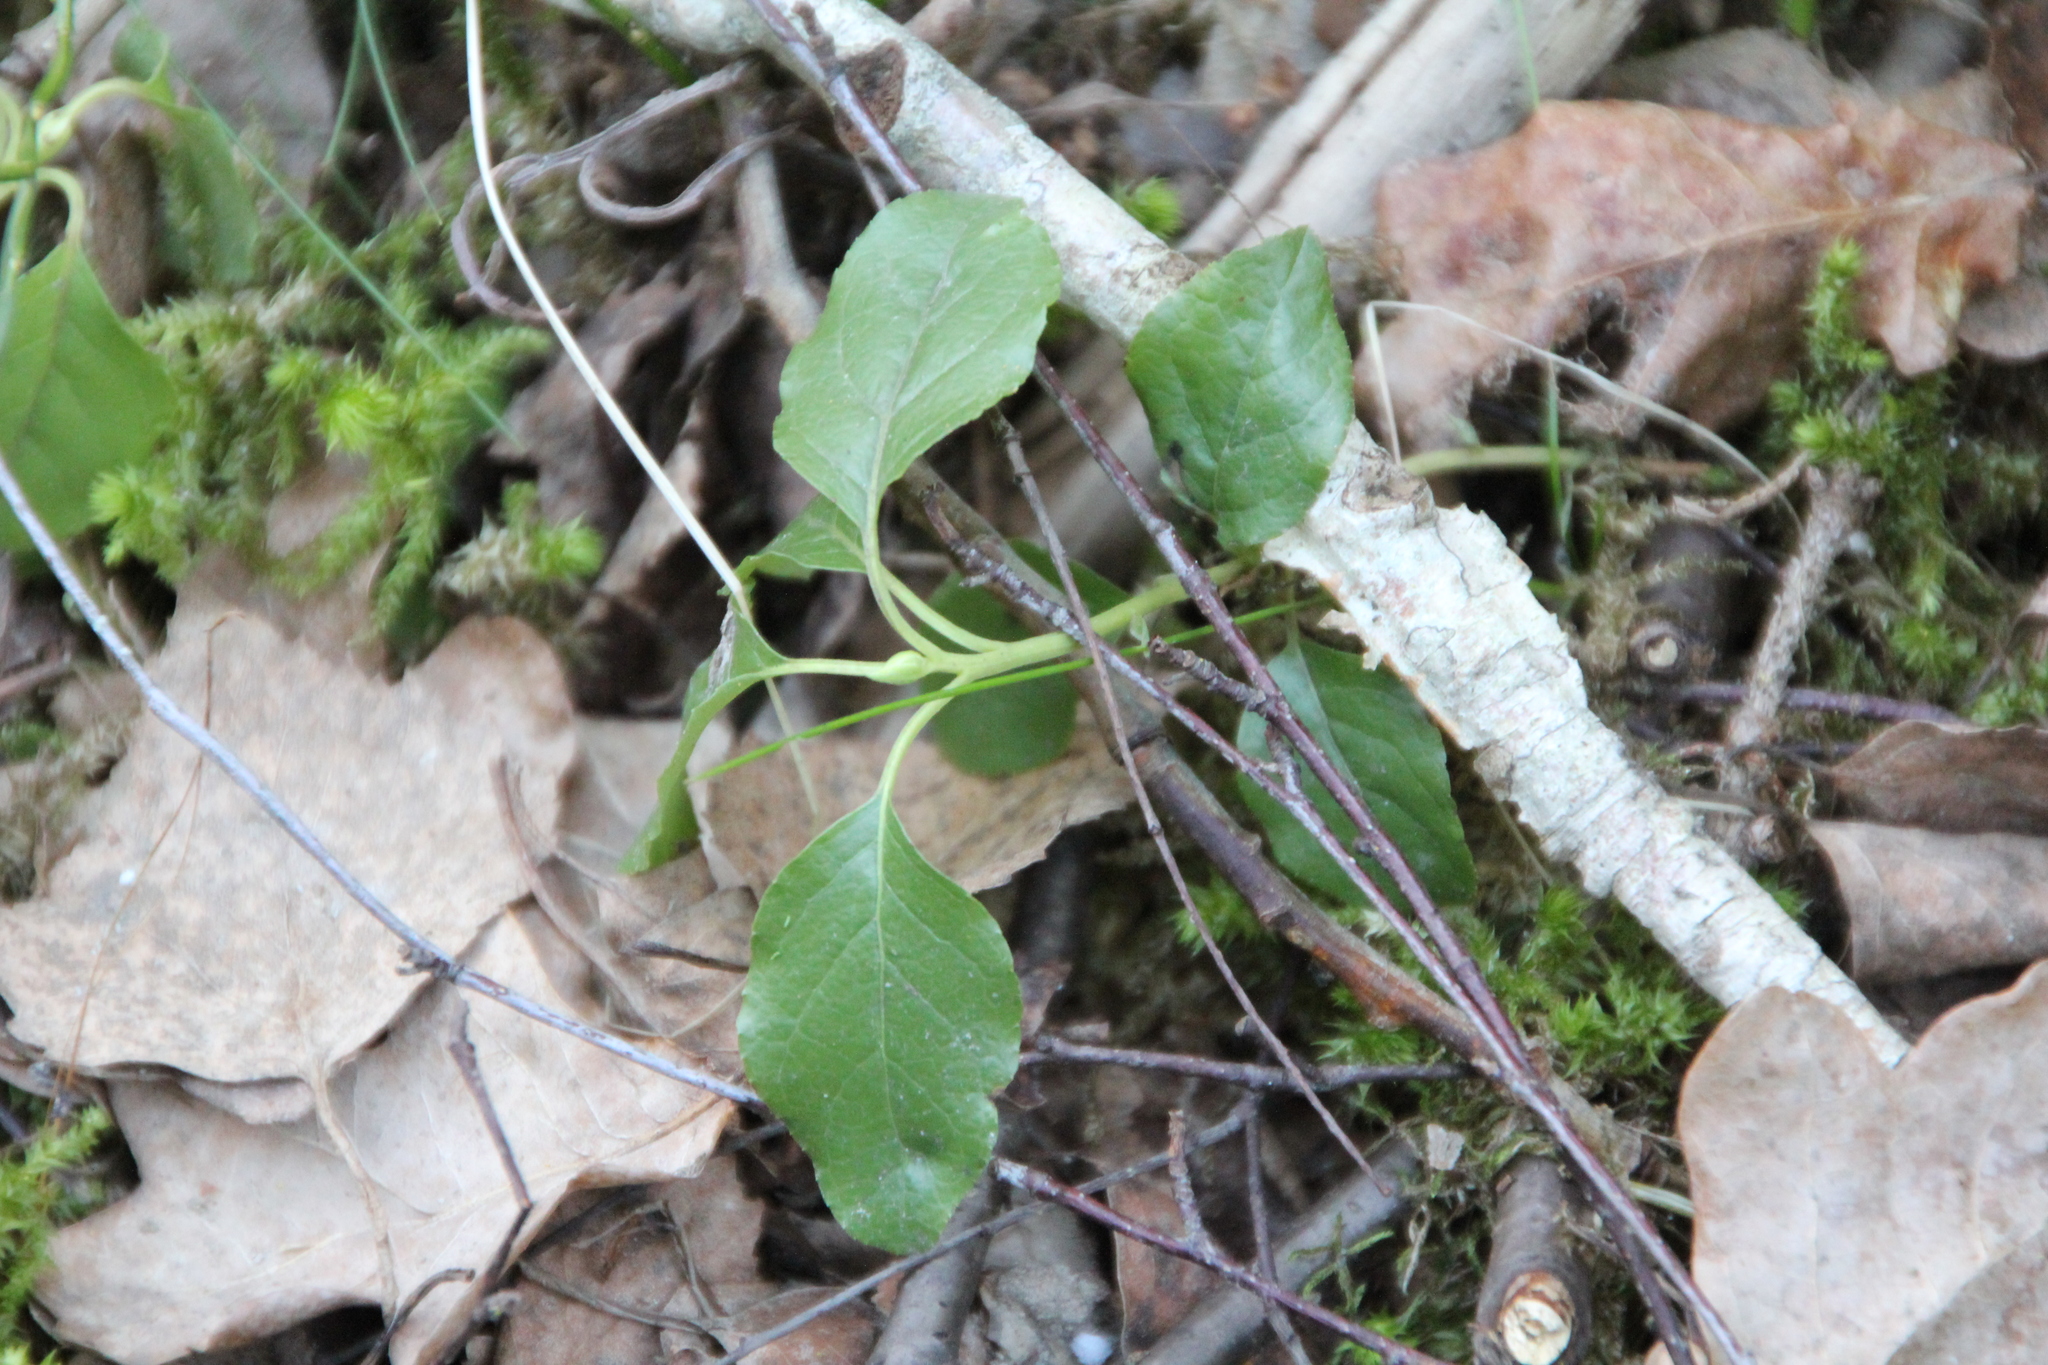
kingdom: Plantae
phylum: Tracheophyta
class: Magnoliopsida
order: Ericales
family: Ericaceae
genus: Orthilia
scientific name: Orthilia secunda
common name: One-sided orthilia
